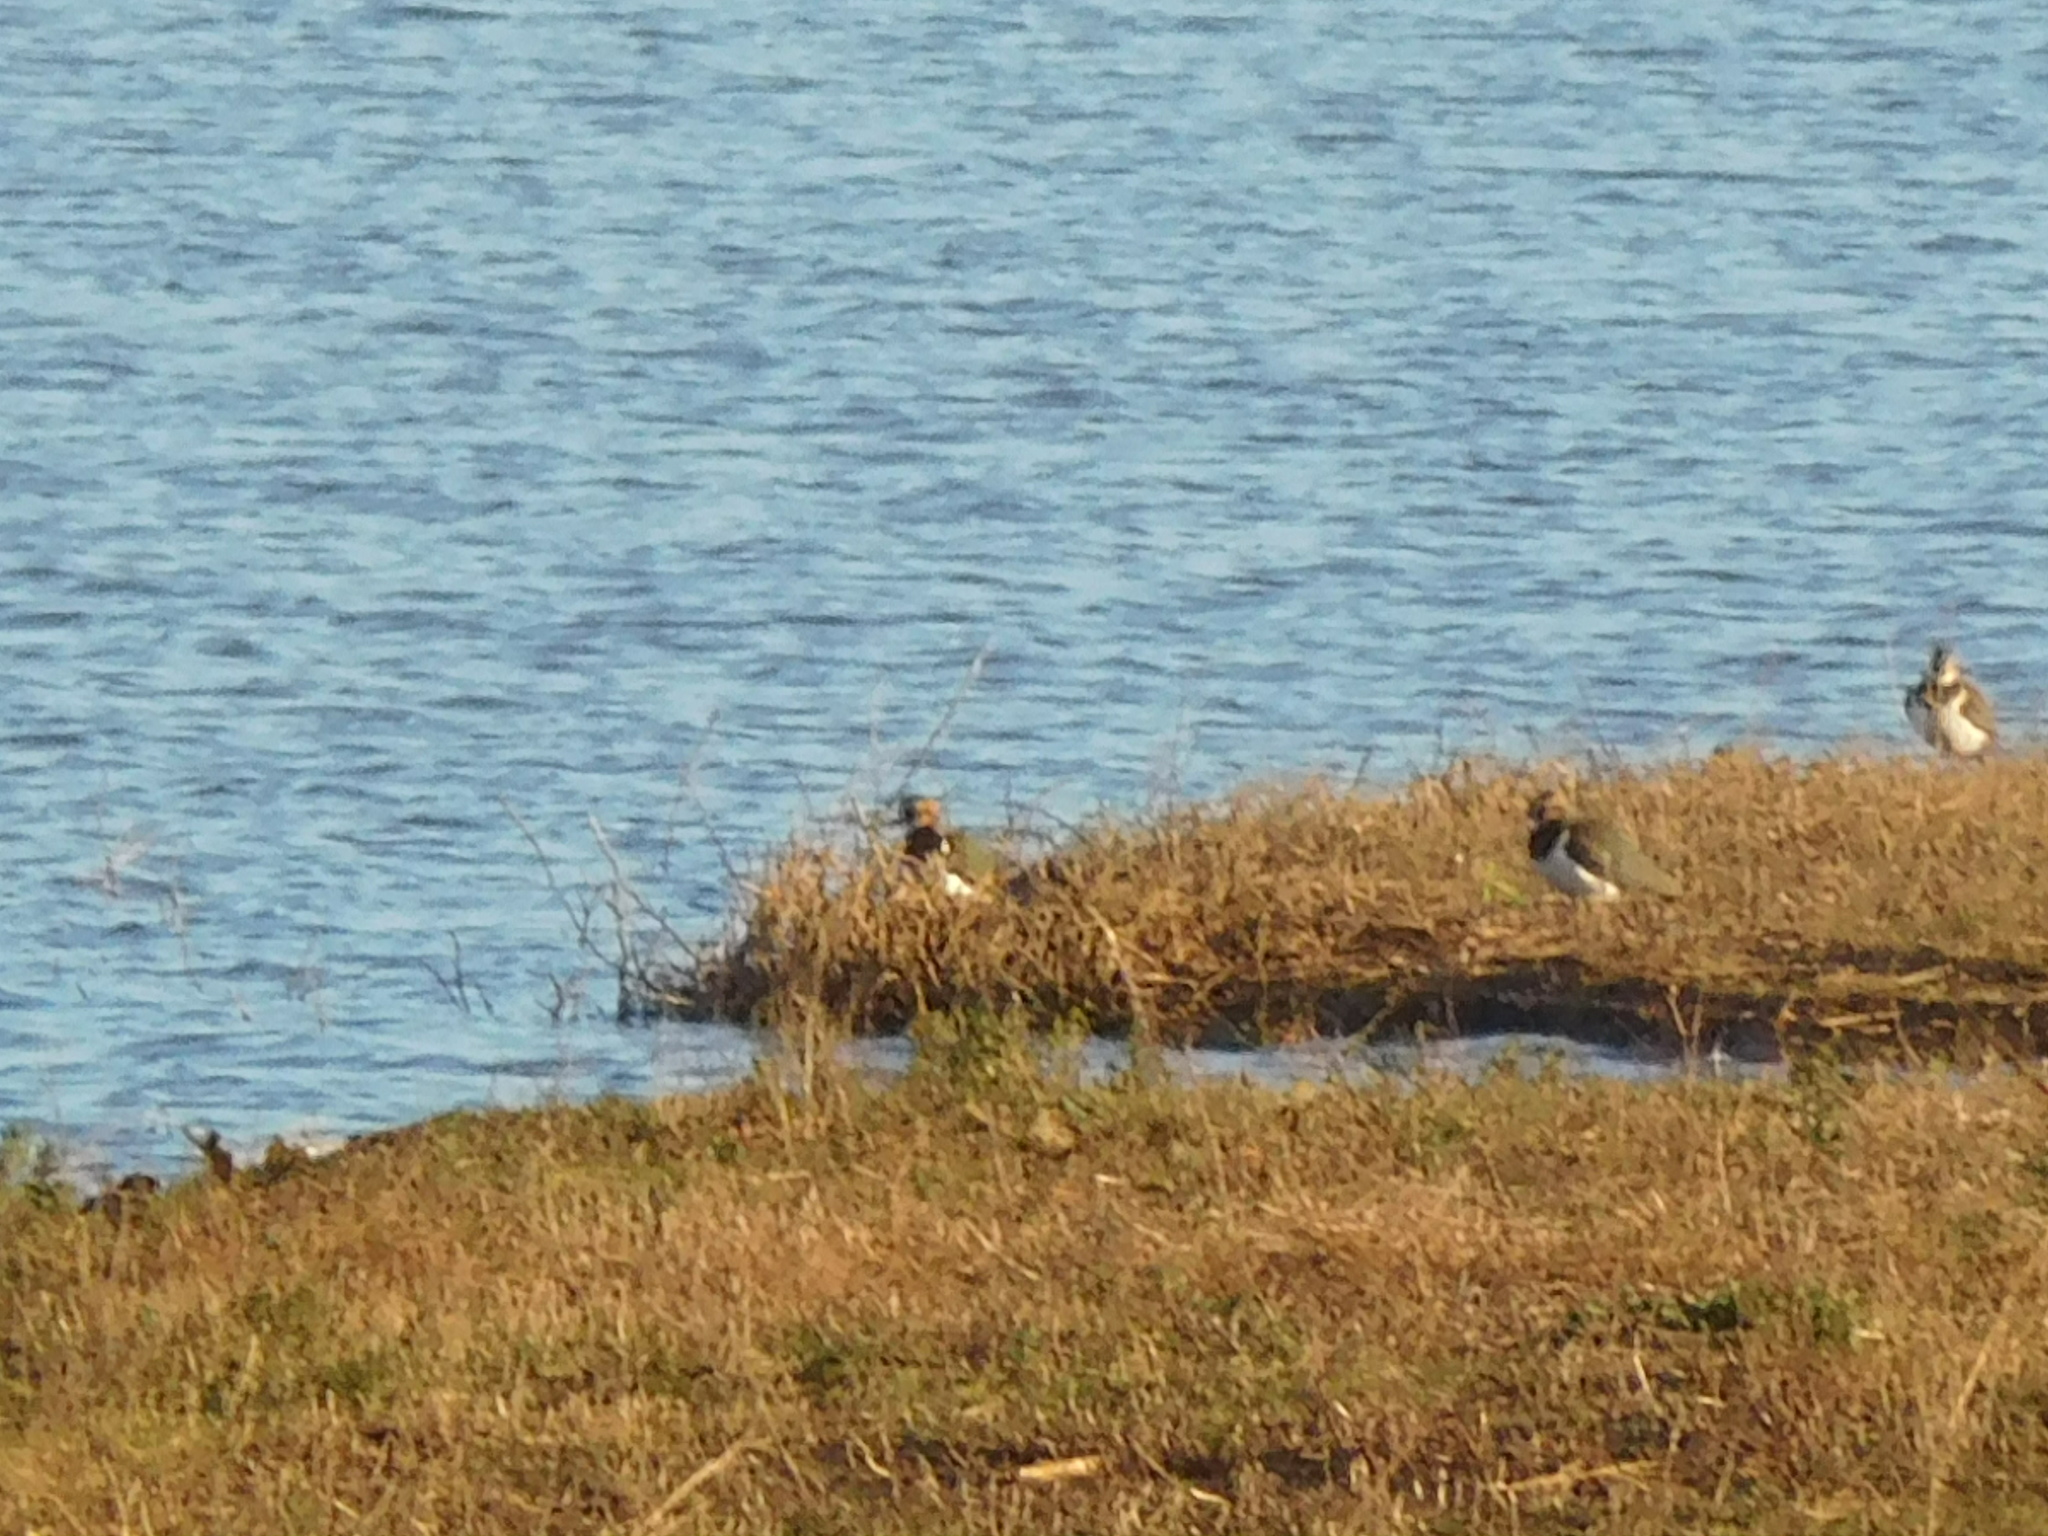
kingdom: Animalia
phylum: Chordata
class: Aves
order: Charadriiformes
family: Charadriidae
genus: Vanellus
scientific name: Vanellus vanellus
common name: Northern lapwing
